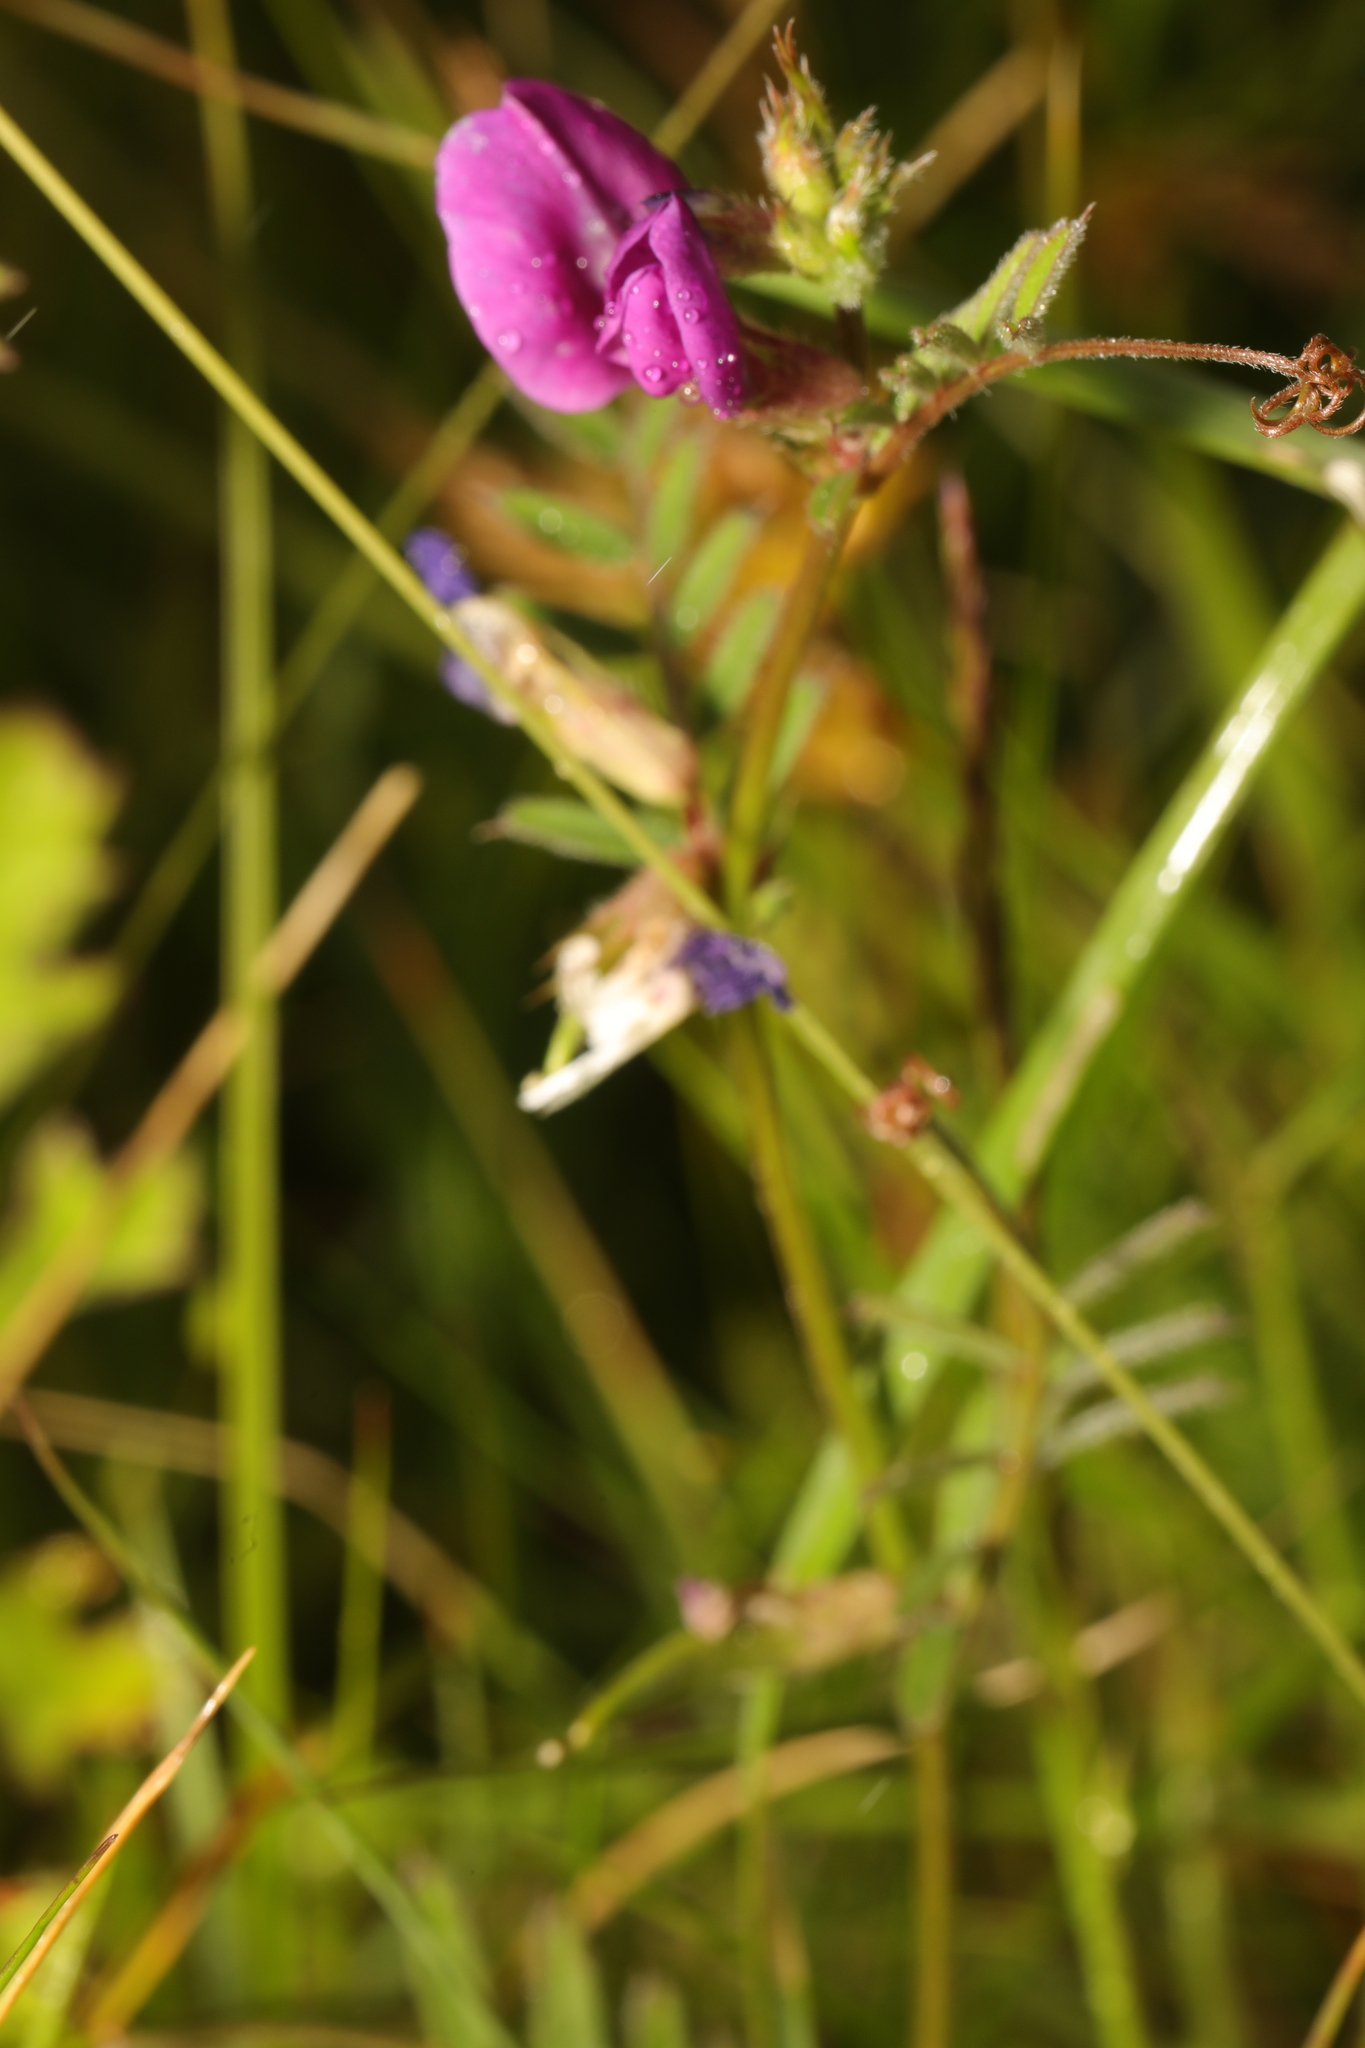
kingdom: Plantae
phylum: Tracheophyta
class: Magnoliopsida
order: Fabales
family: Fabaceae
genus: Vicia
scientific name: Vicia sativa
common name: Garden vetch
